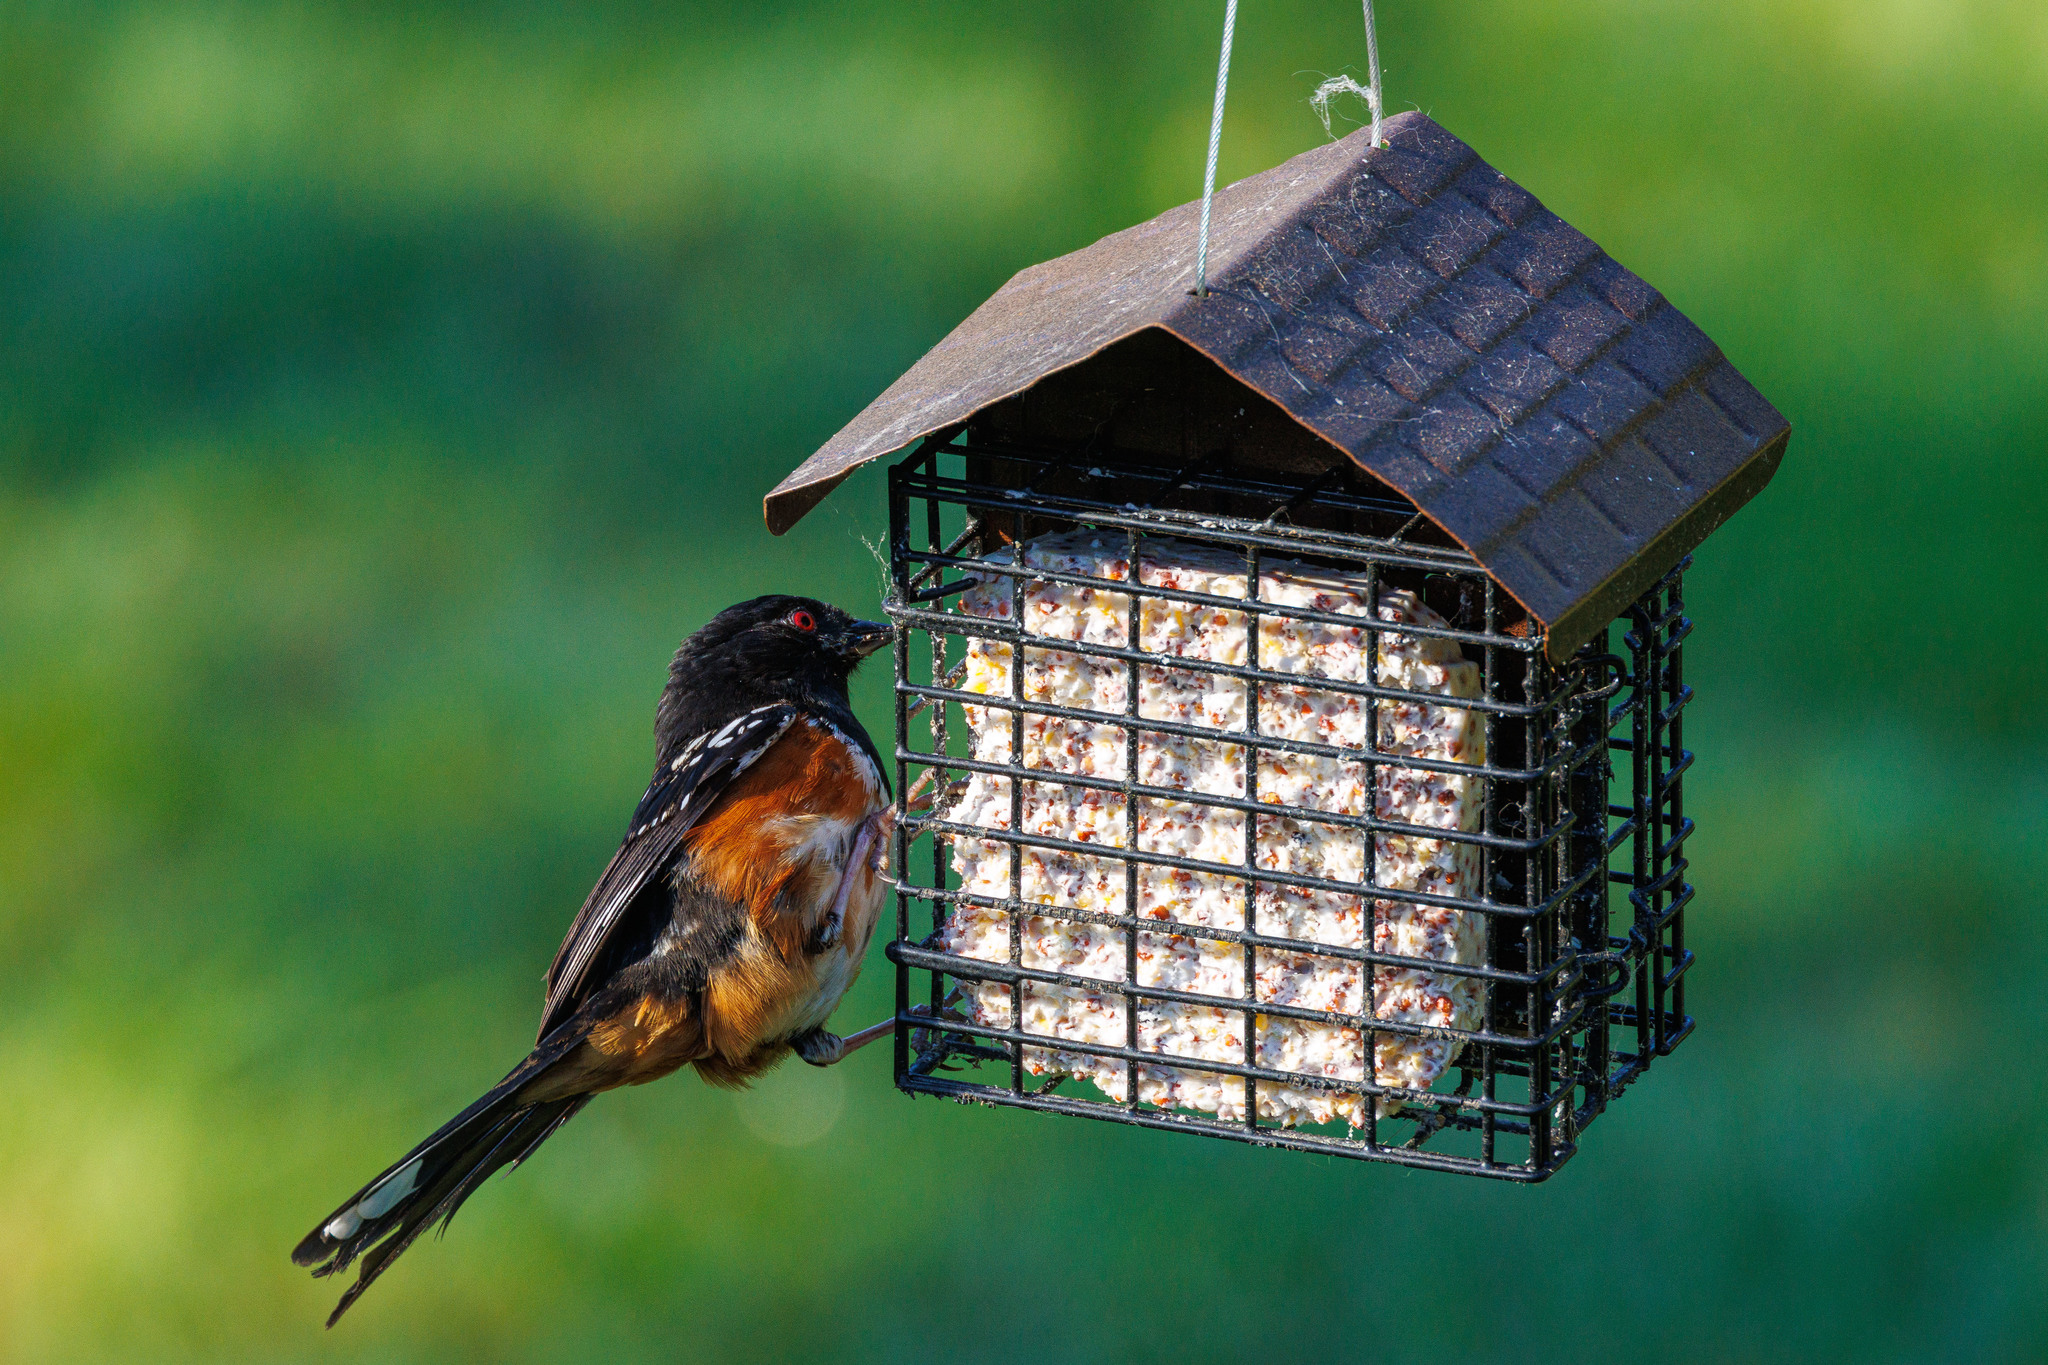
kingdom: Animalia
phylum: Chordata
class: Aves
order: Passeriformes
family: Passerellidae
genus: Pipilo
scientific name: Pipilo maculatus
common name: Spotted towhee
